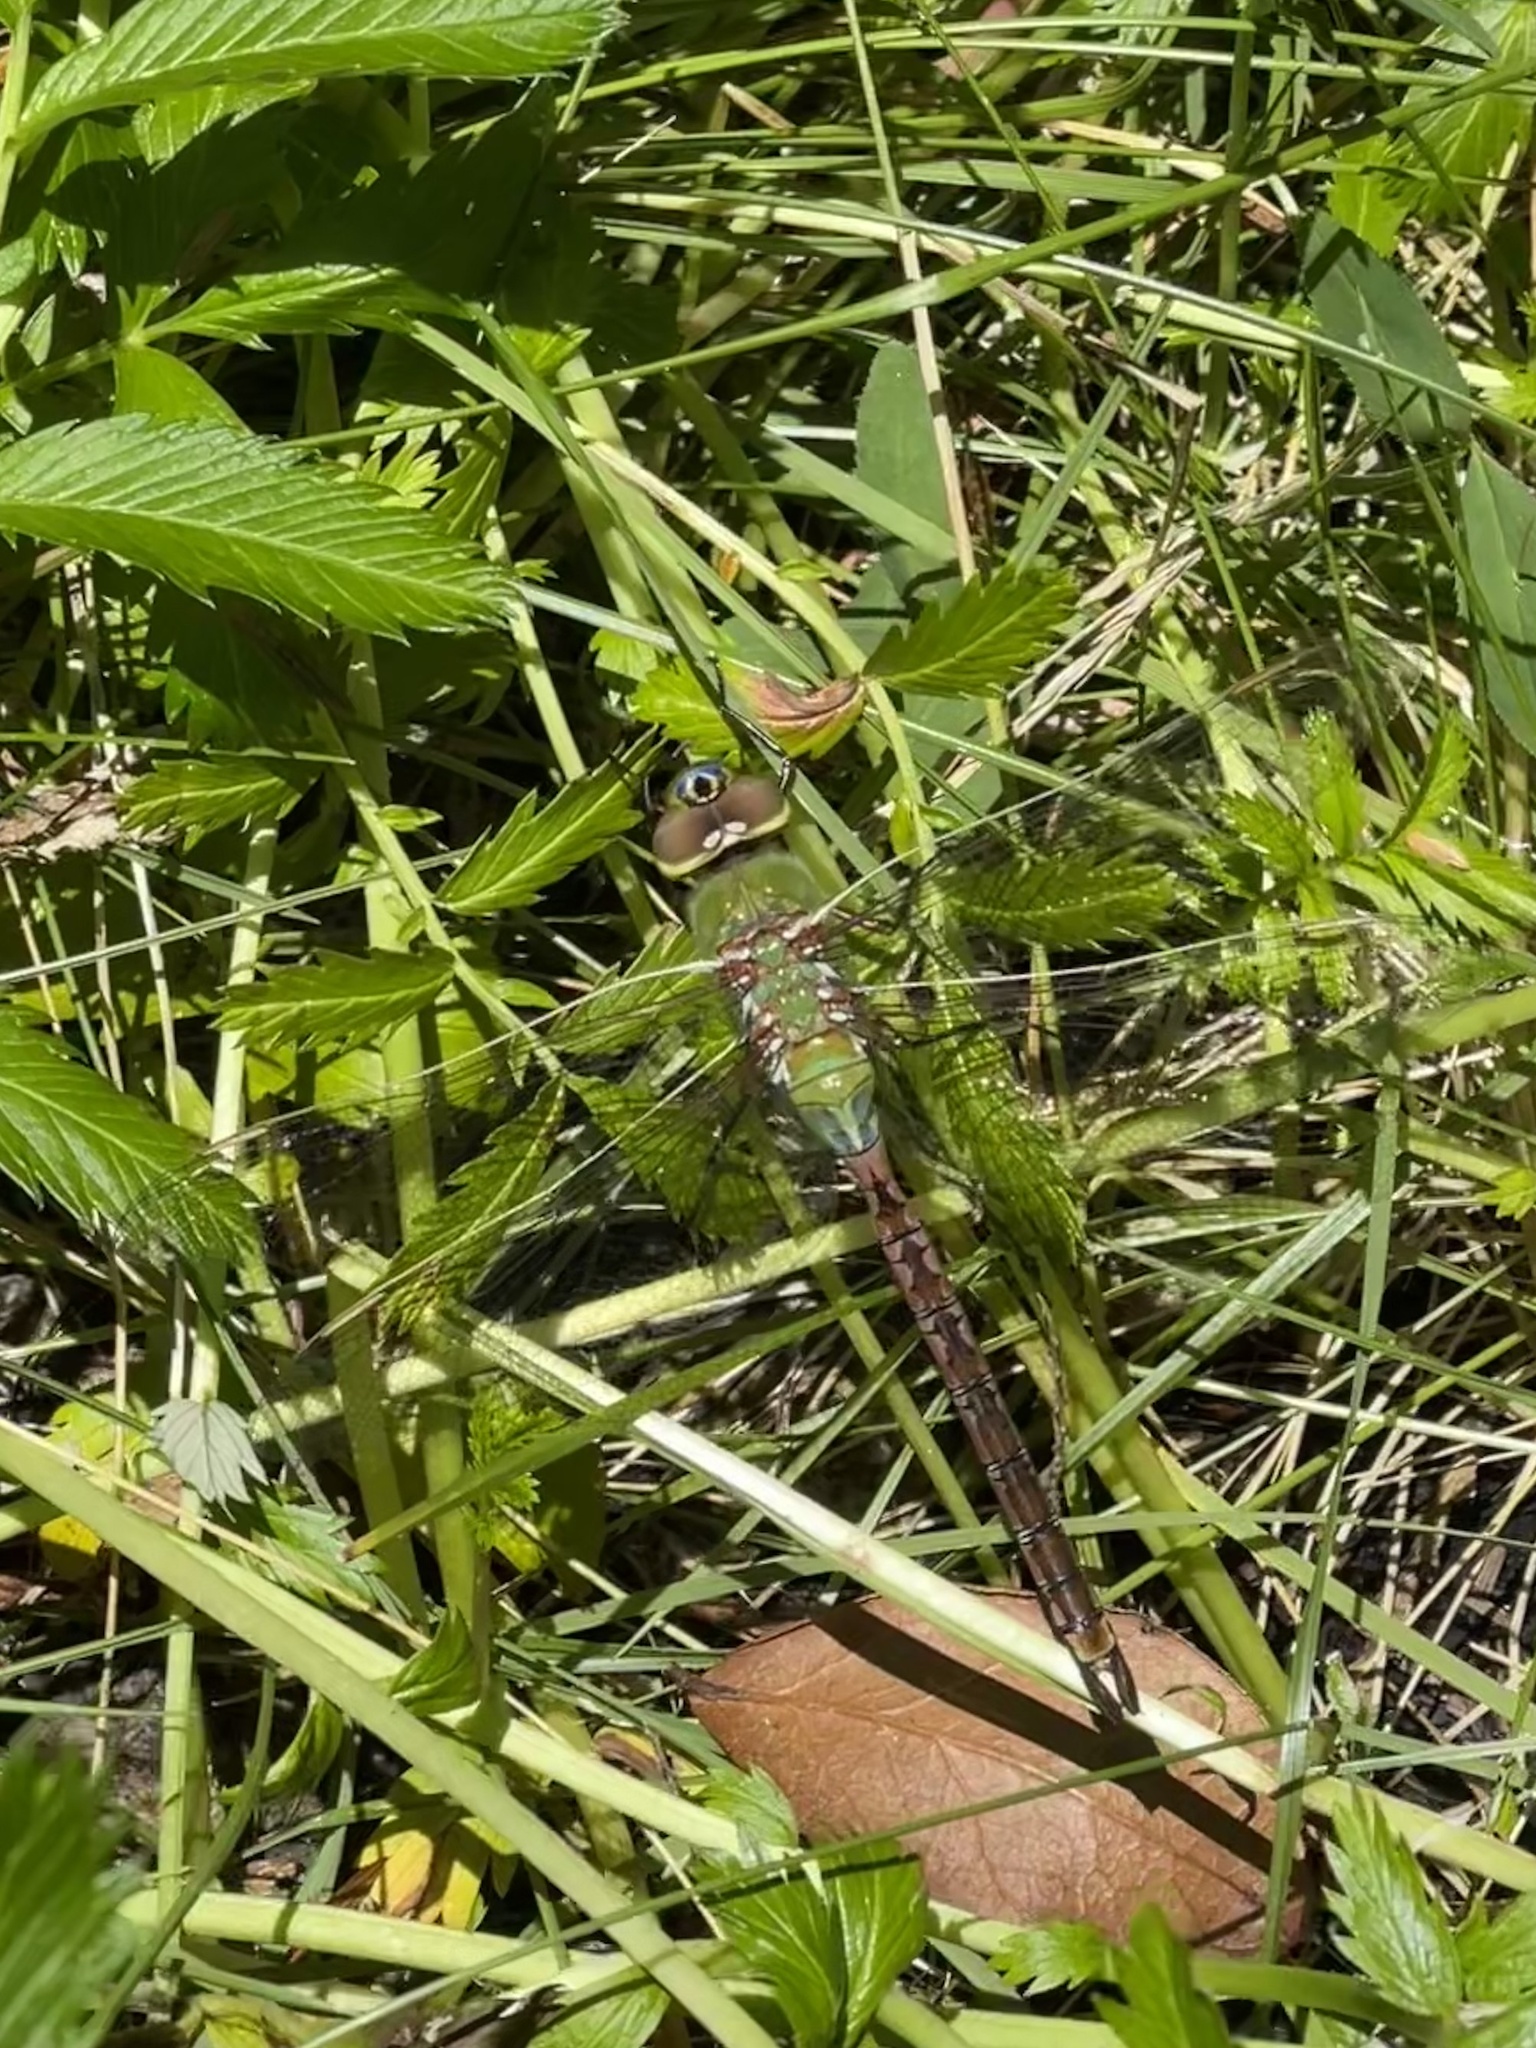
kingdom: Animalia
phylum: Arthropoda
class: Insecta
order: Odonata
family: Aeshnidae
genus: Anax
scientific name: Anax junius
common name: Common green darner
